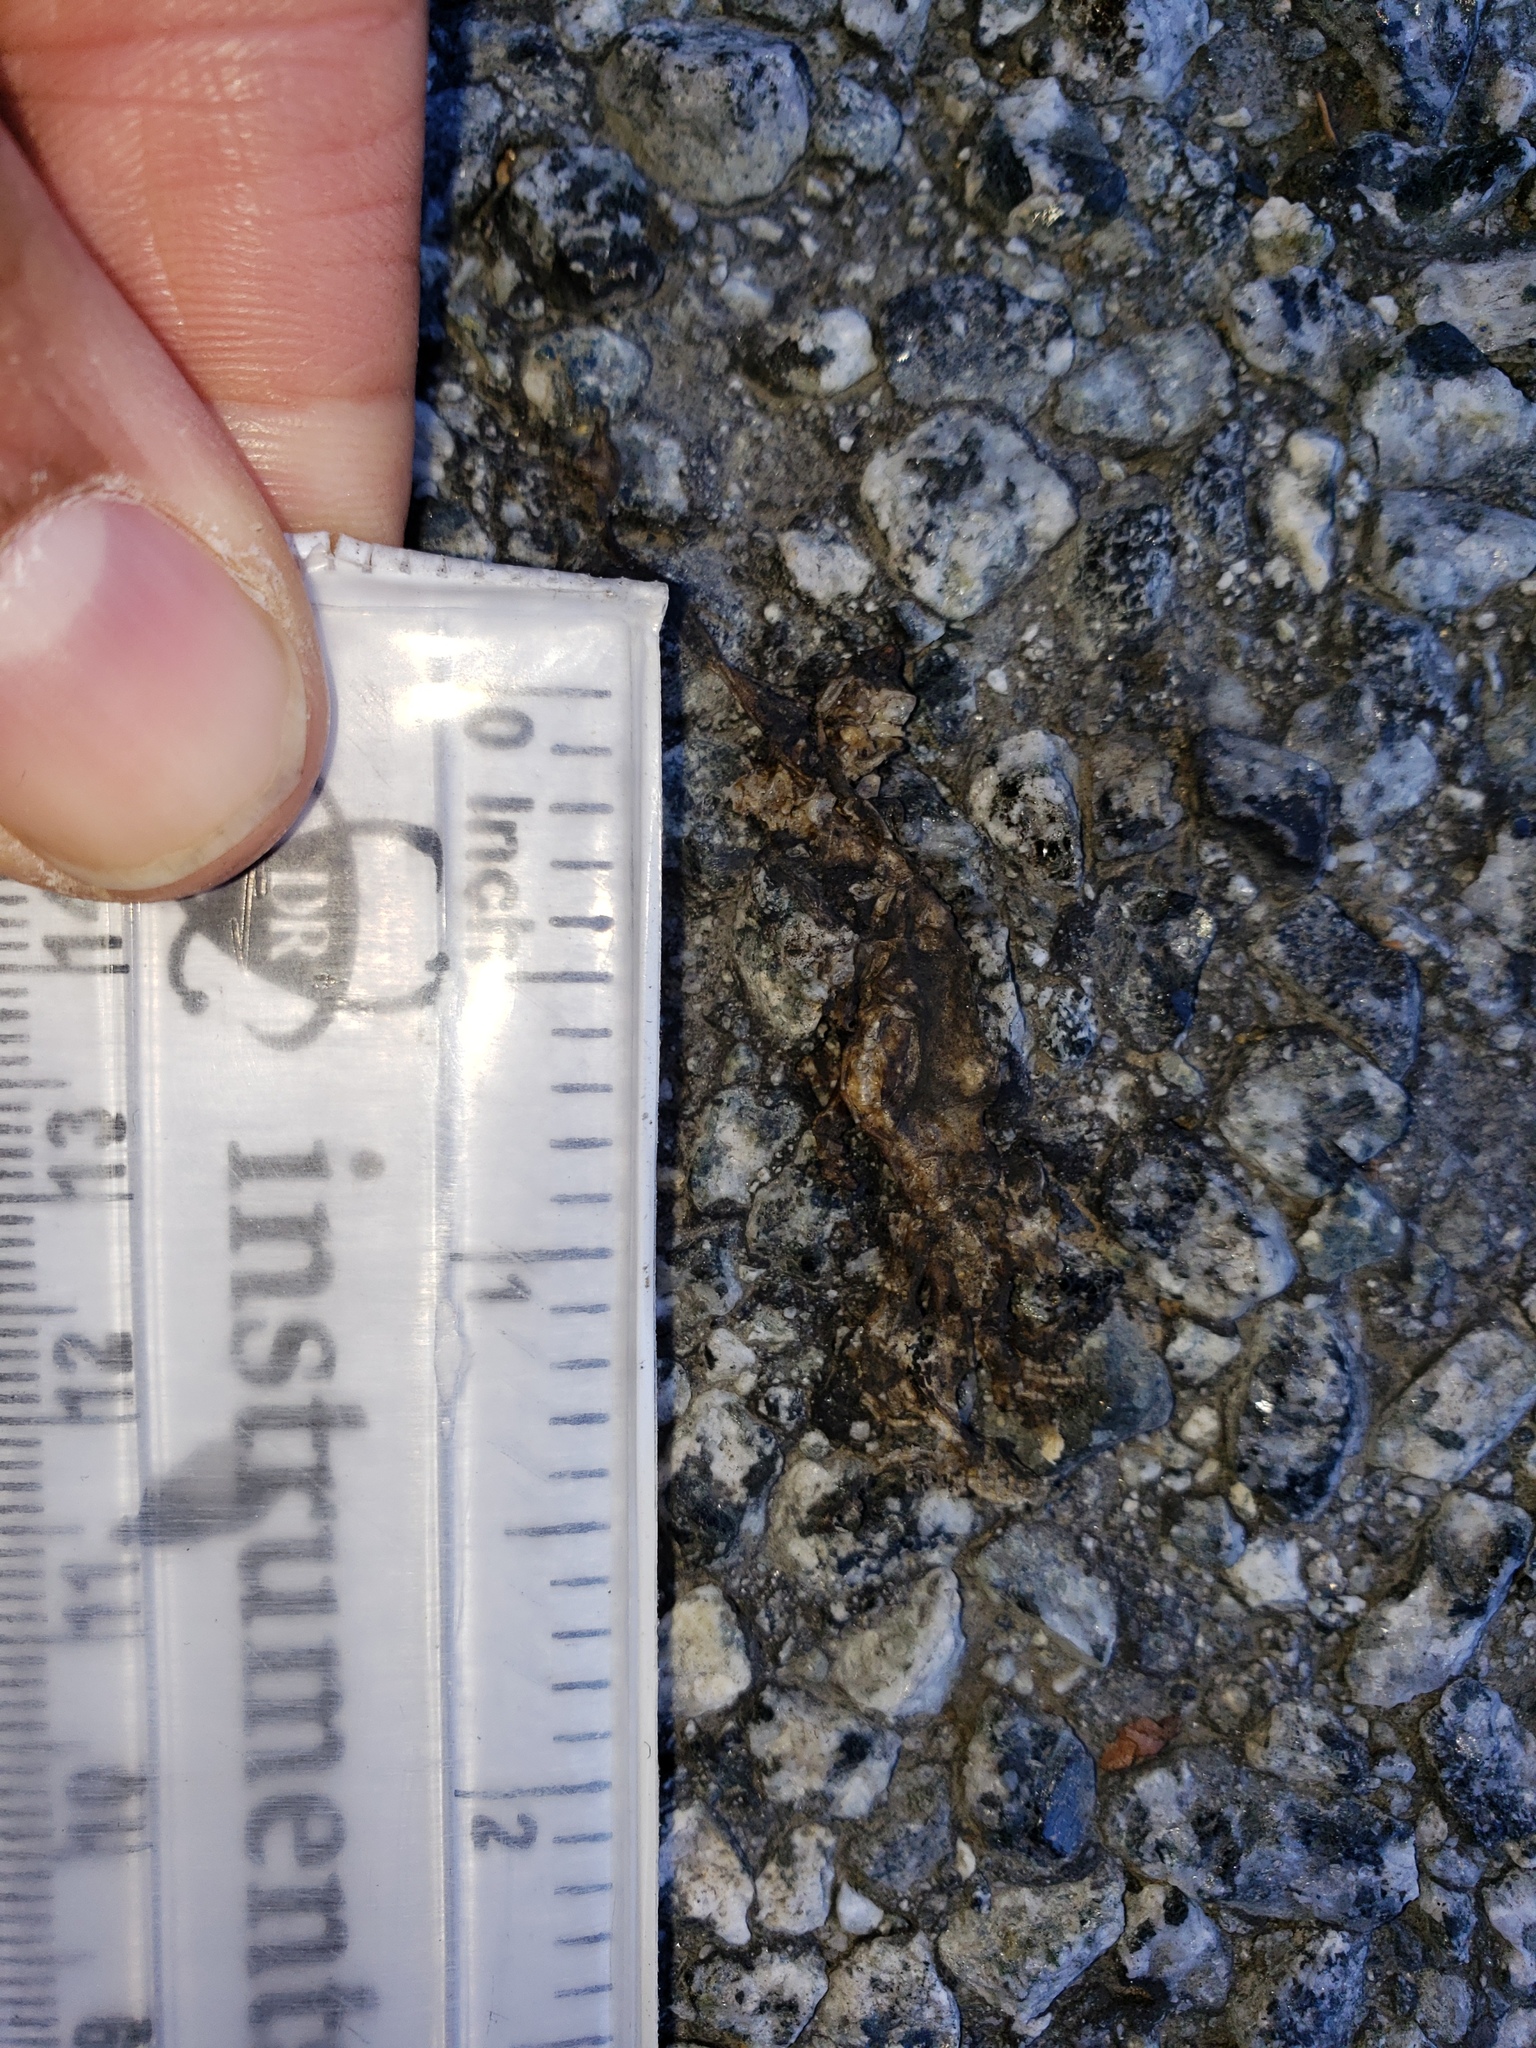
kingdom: Animalia
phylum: Chordata
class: Amphibia
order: Caudata
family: Salamandridae
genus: Taricha
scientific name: Taricha
